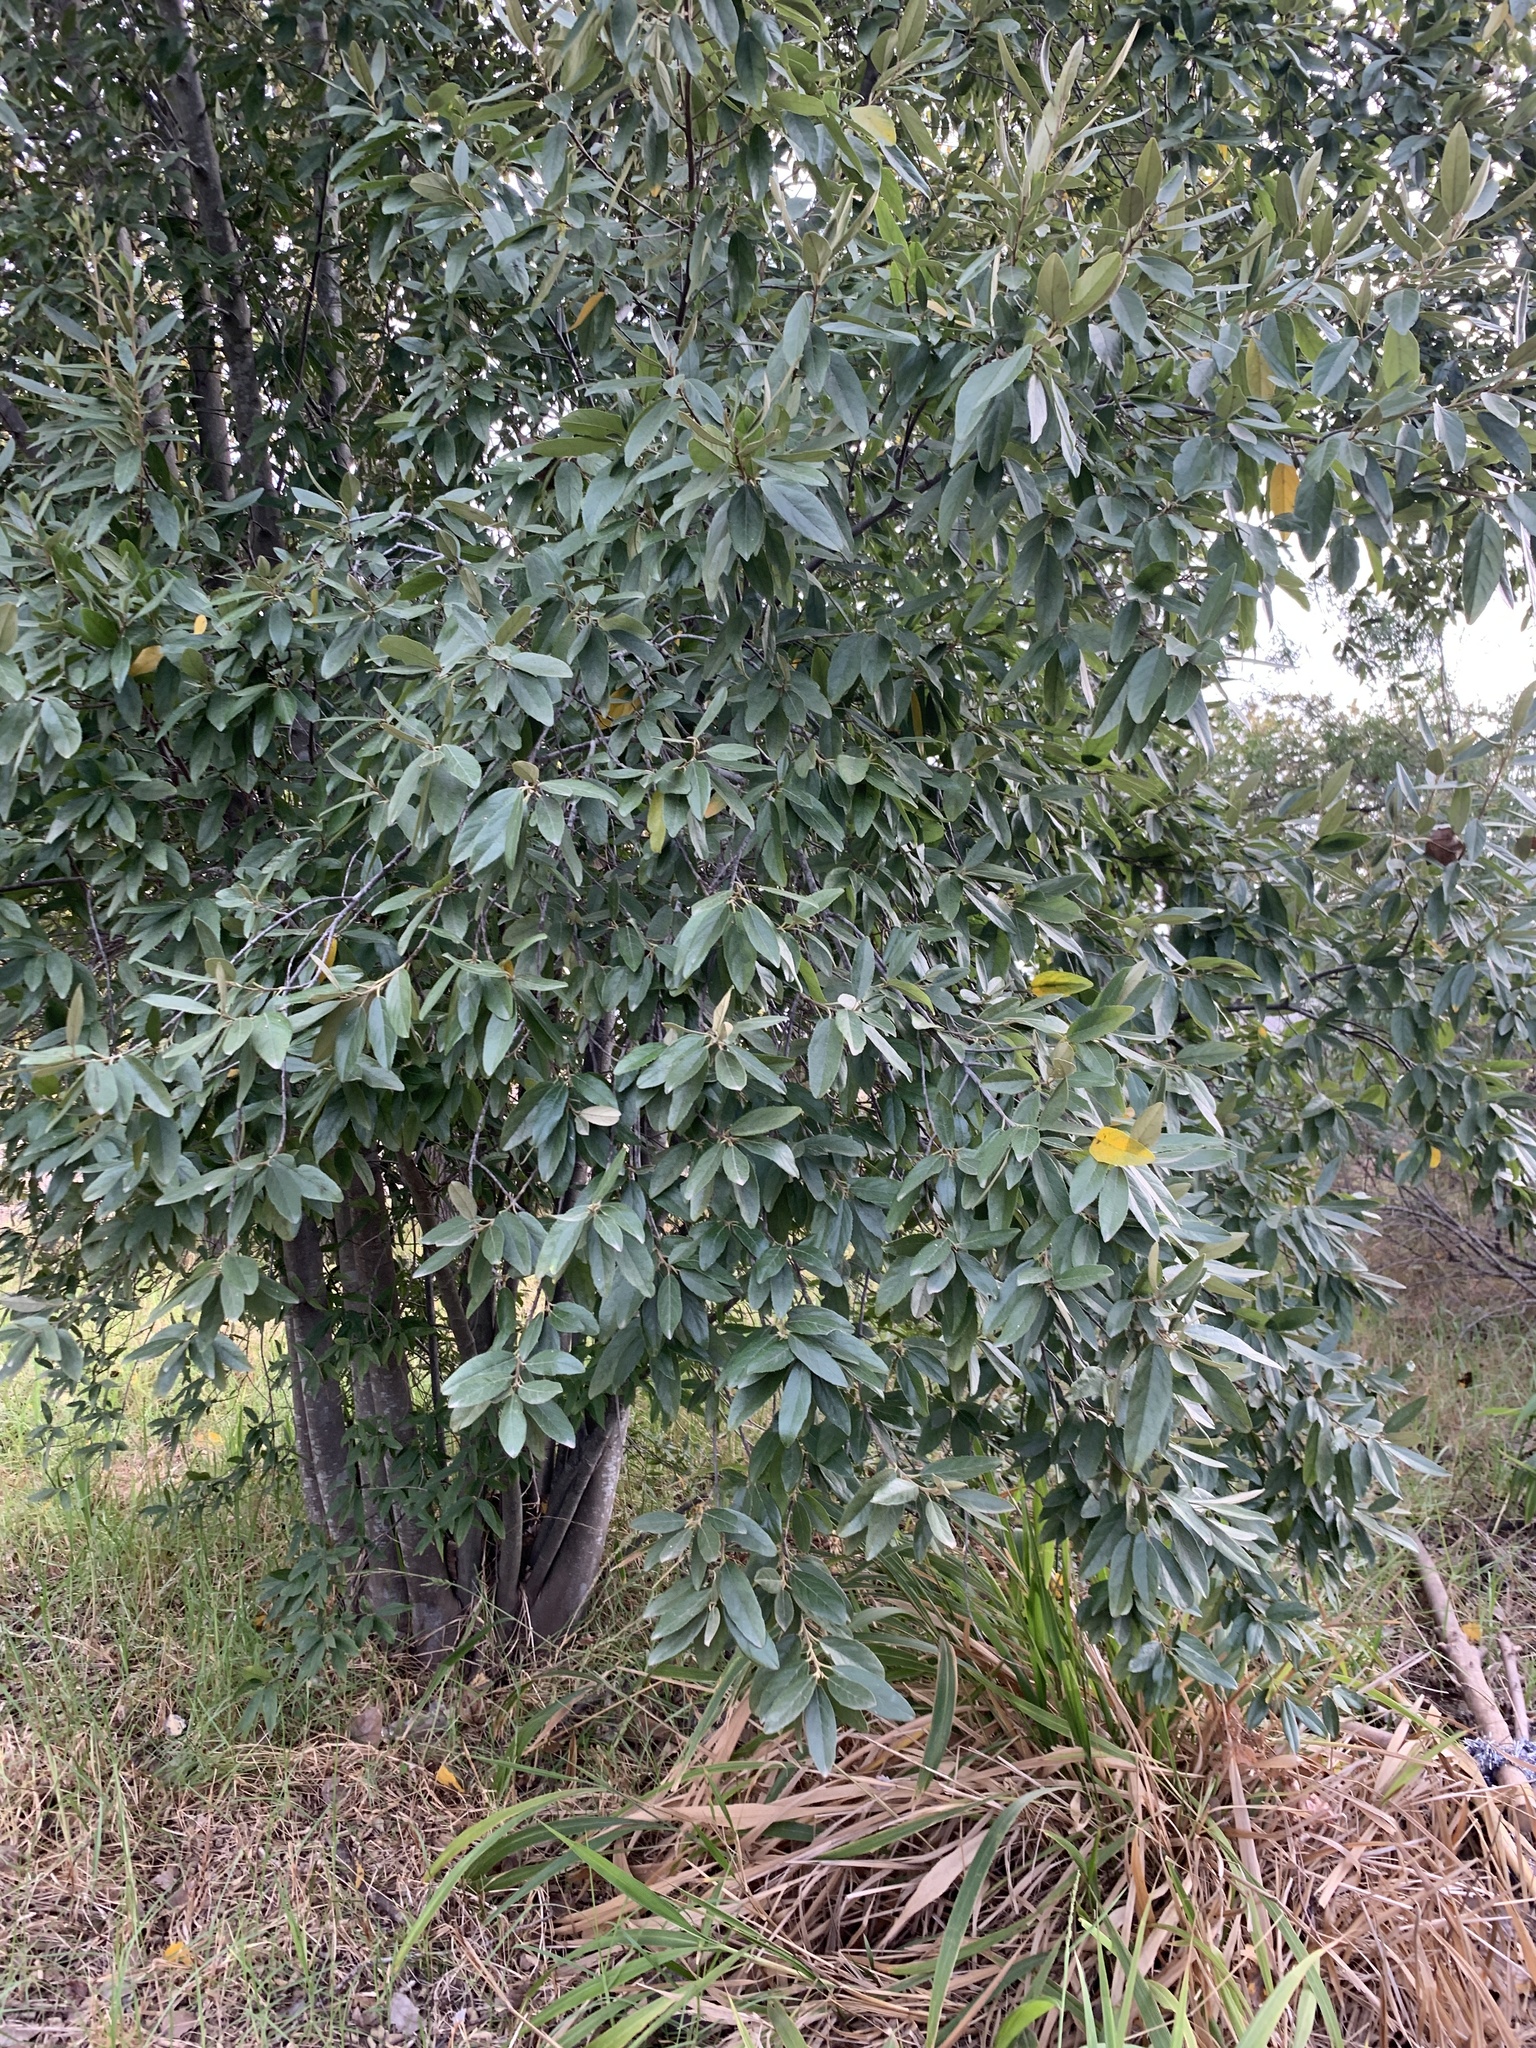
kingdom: Plantae
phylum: Tracheophyta
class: Magnoliopsida
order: Malpighiales
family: Achariaceae
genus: Kiggelaria
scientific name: Kiggelaria africana
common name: Wild peach
